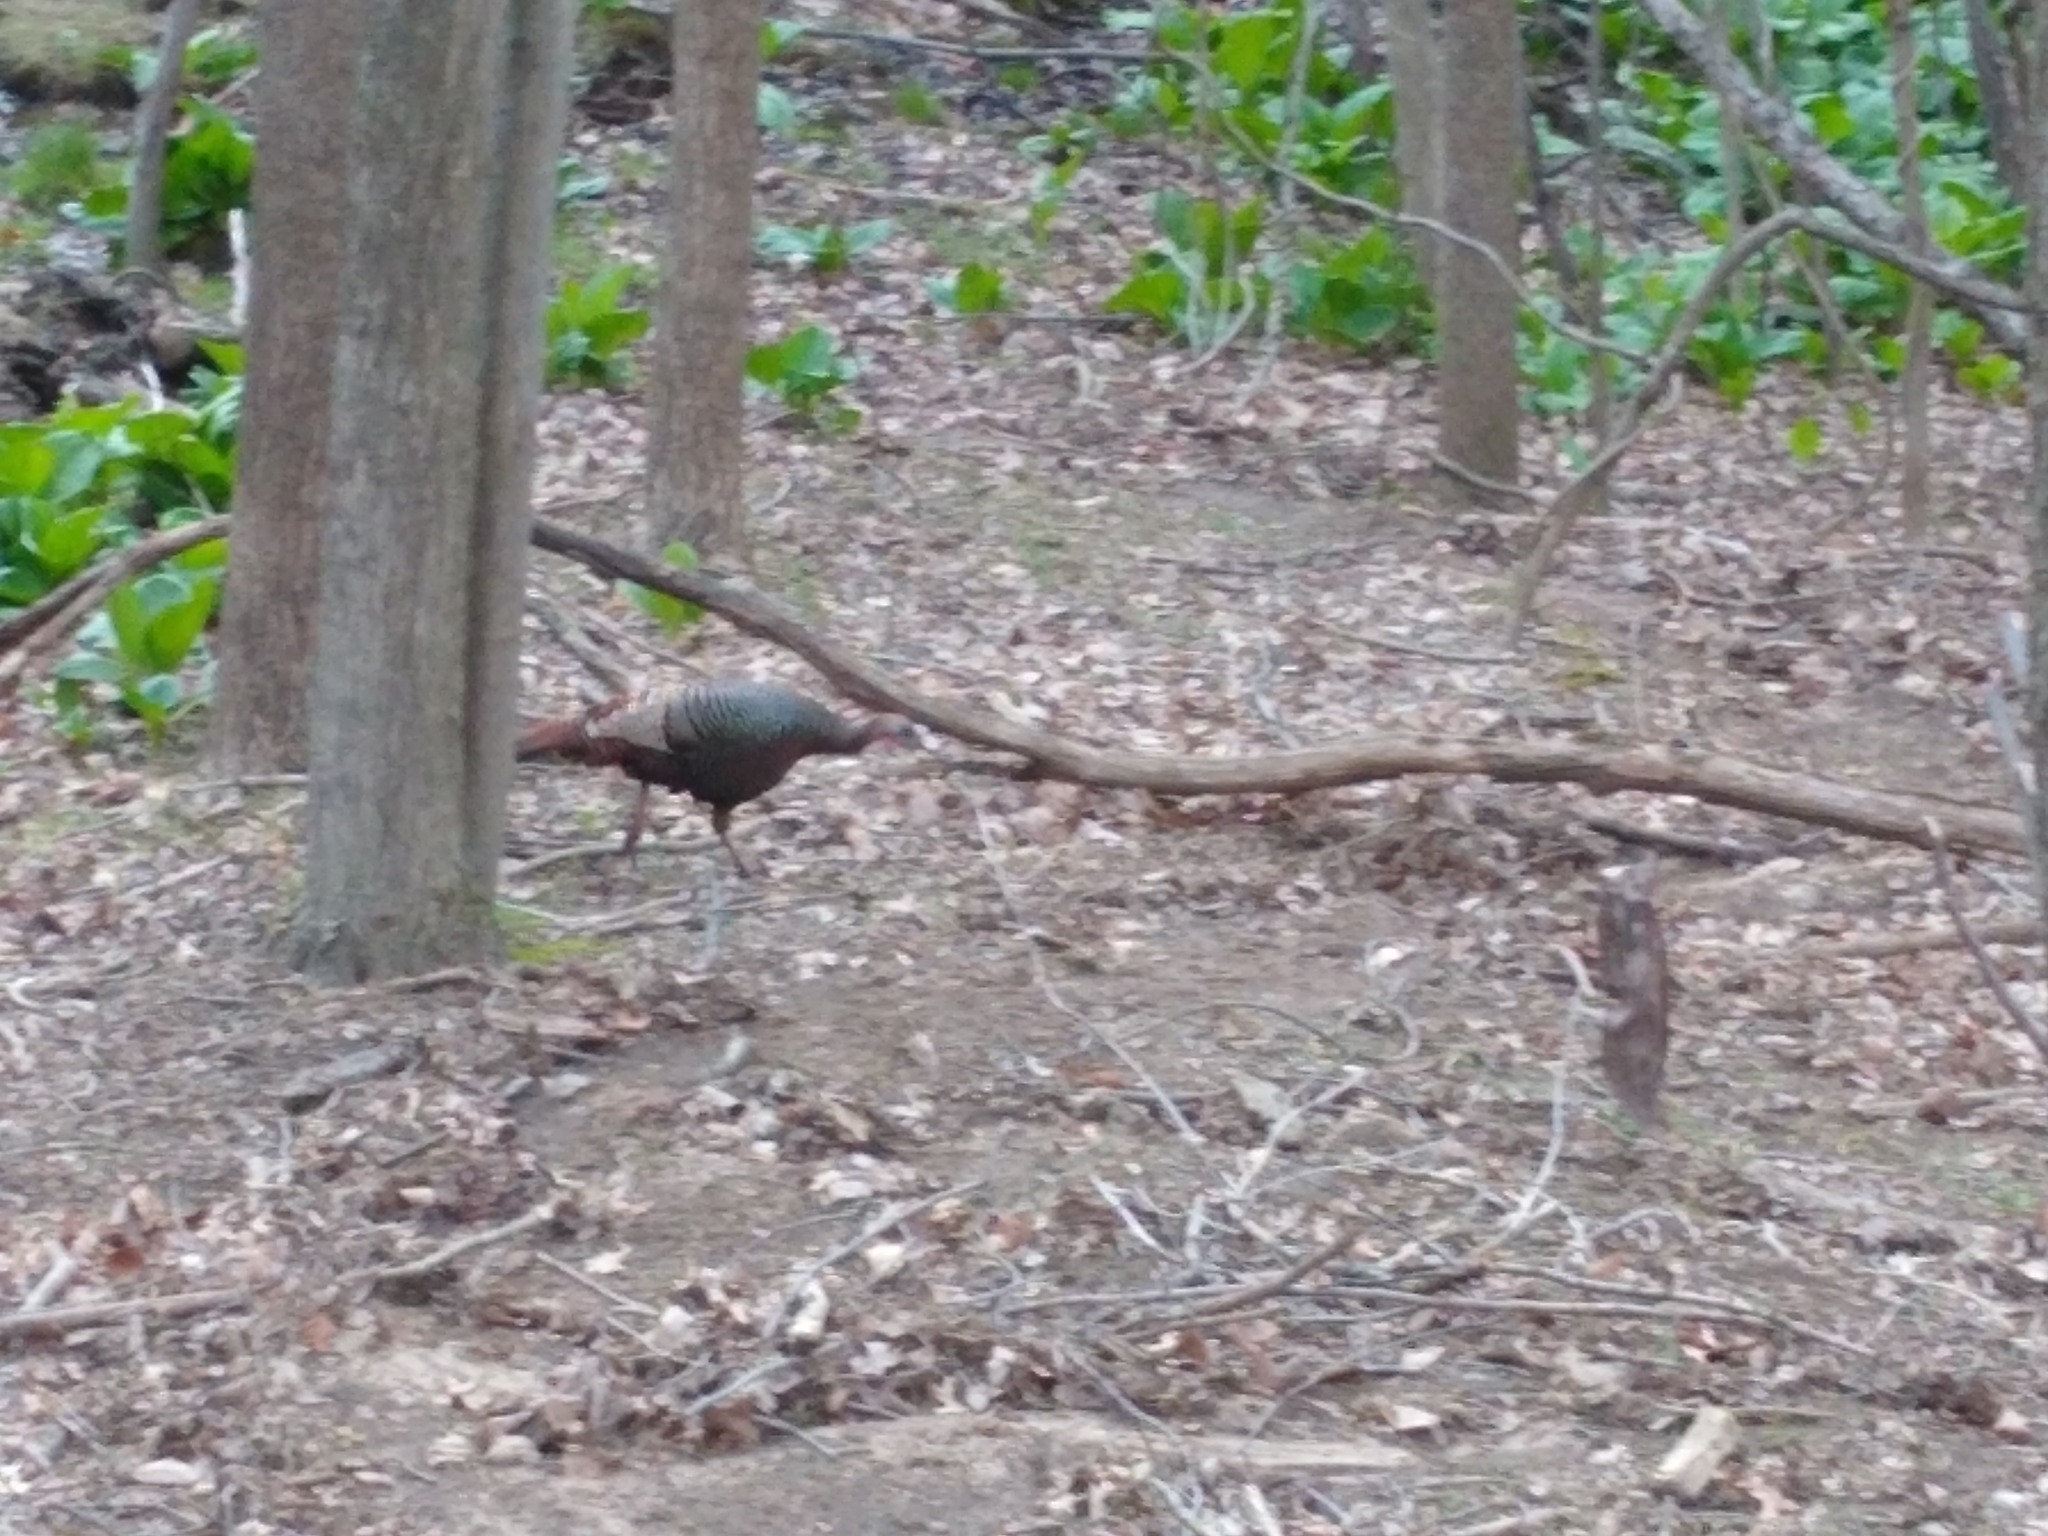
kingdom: Animalia
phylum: Chordata
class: Aves
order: Galliformes
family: Phasianidae
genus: Meleagris
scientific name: Meleagris gallopavo
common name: Wild turkey
